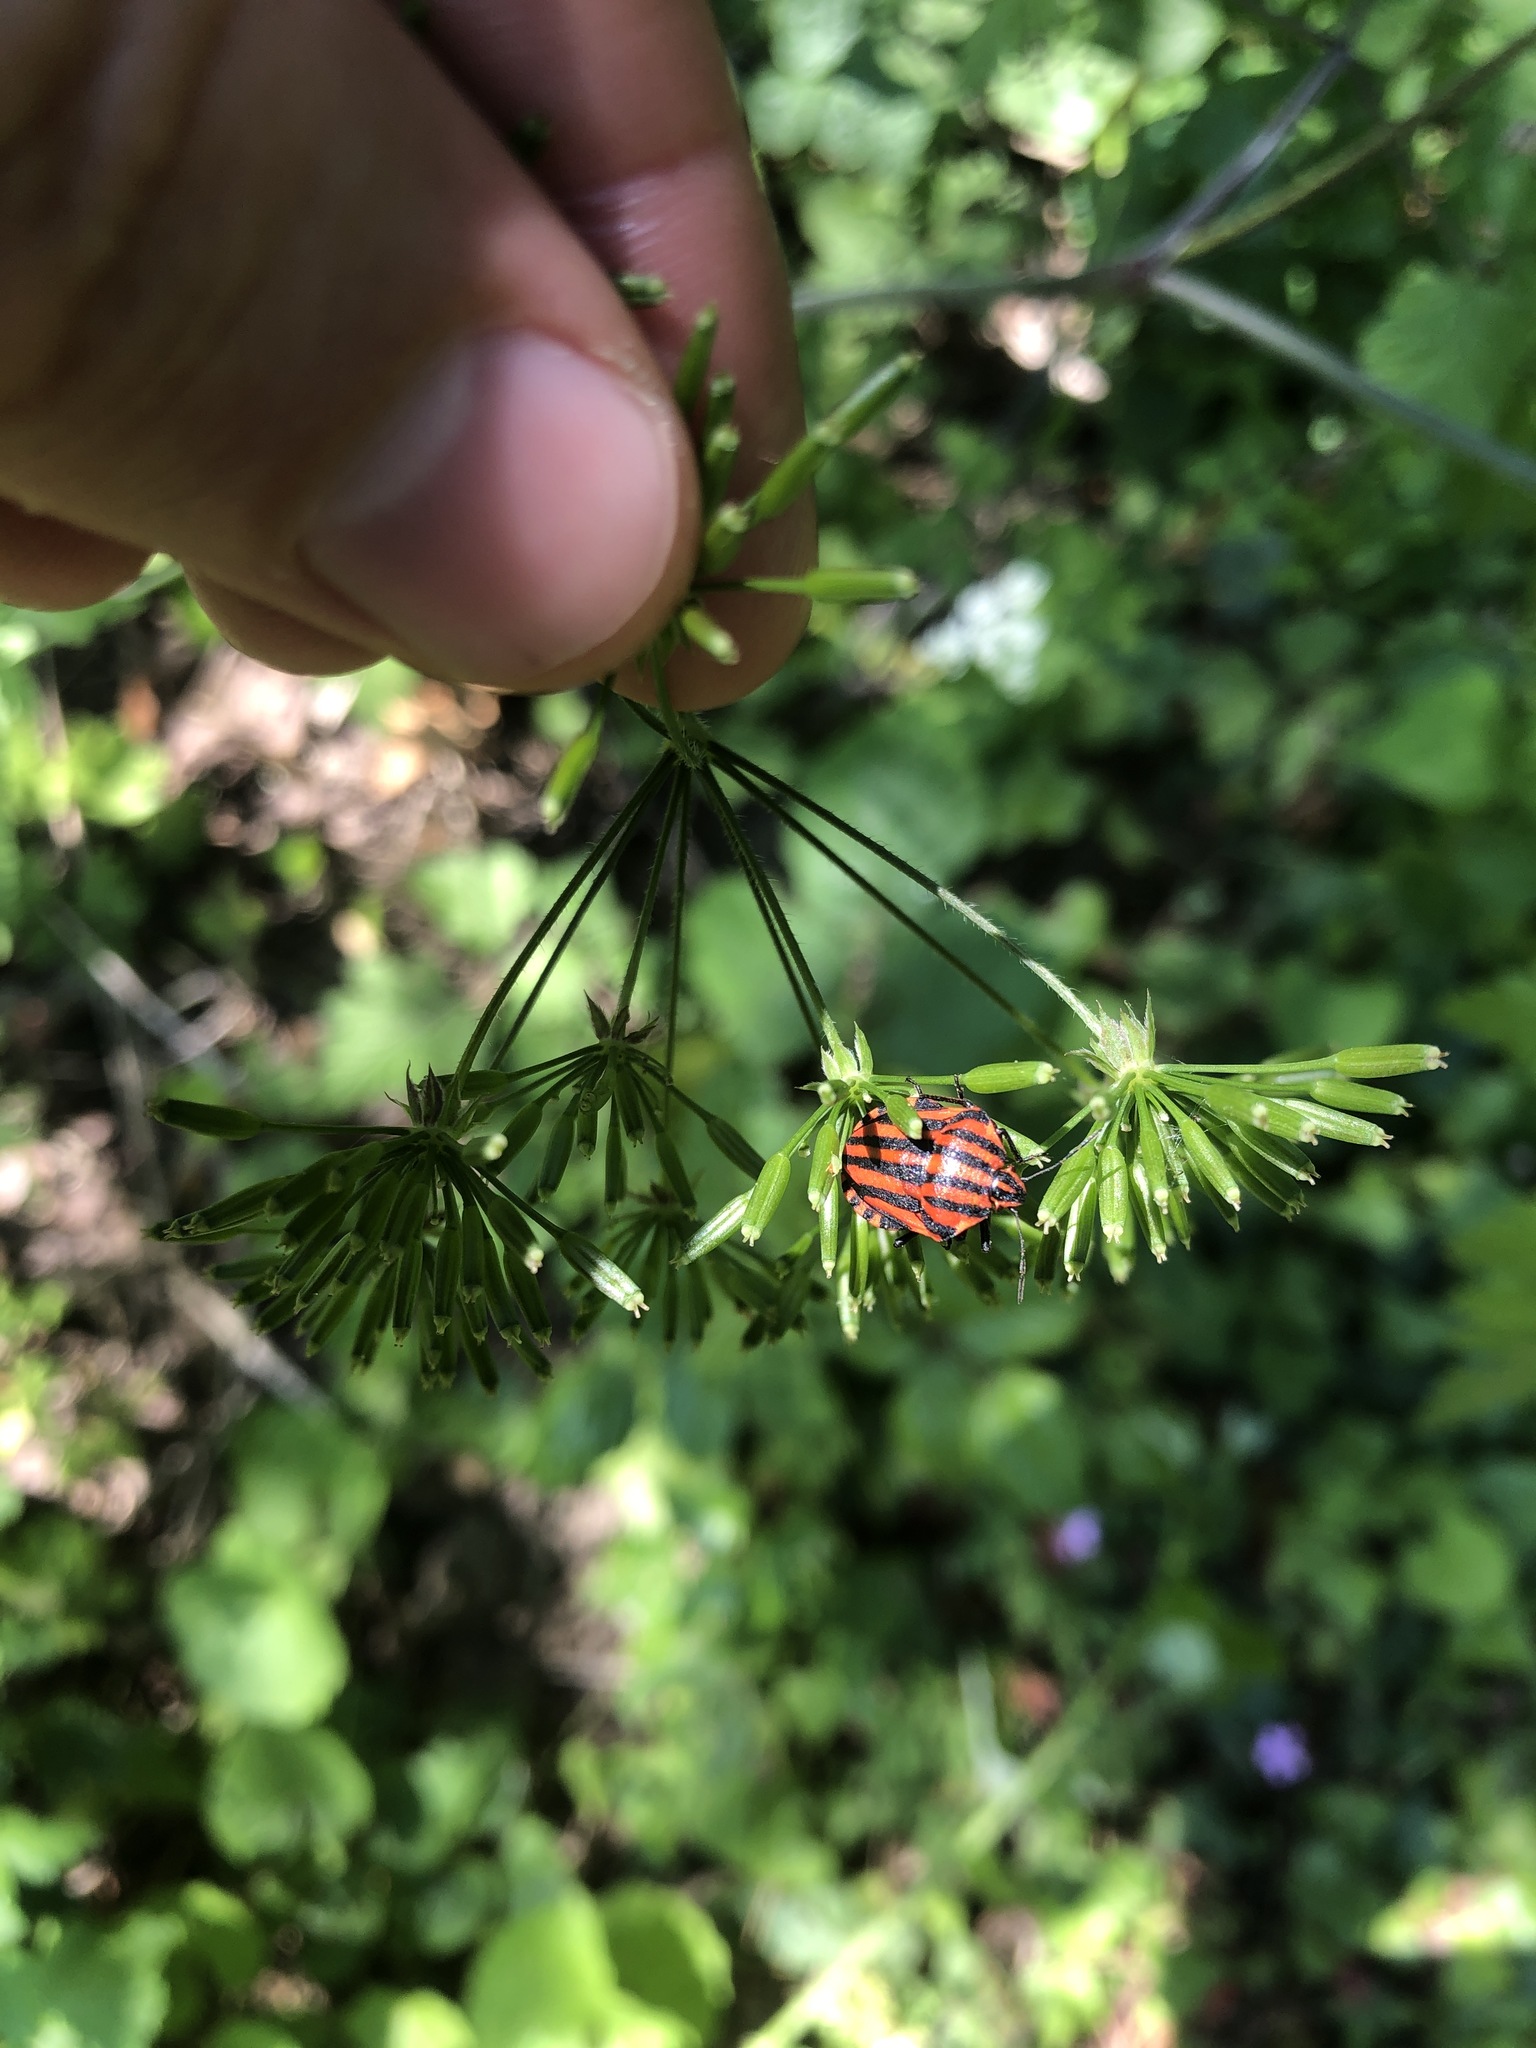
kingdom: Animalia
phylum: Arthropoda
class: Insecta
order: Hemiptera
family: Pentatomidae
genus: Graphosoma
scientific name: Graphosoma italicum
